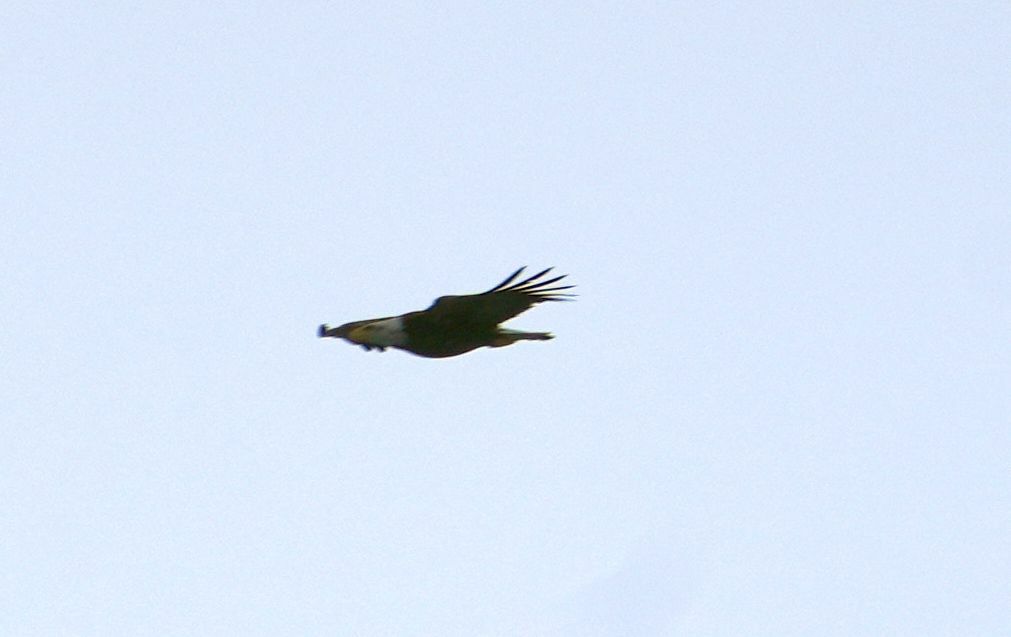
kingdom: Animalia
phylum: Chordata
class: Aves
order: Accipitriformes
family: Accipitridae
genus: Haliaeetus
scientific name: Haliaeetus leucocephalus
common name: Bald eagle
